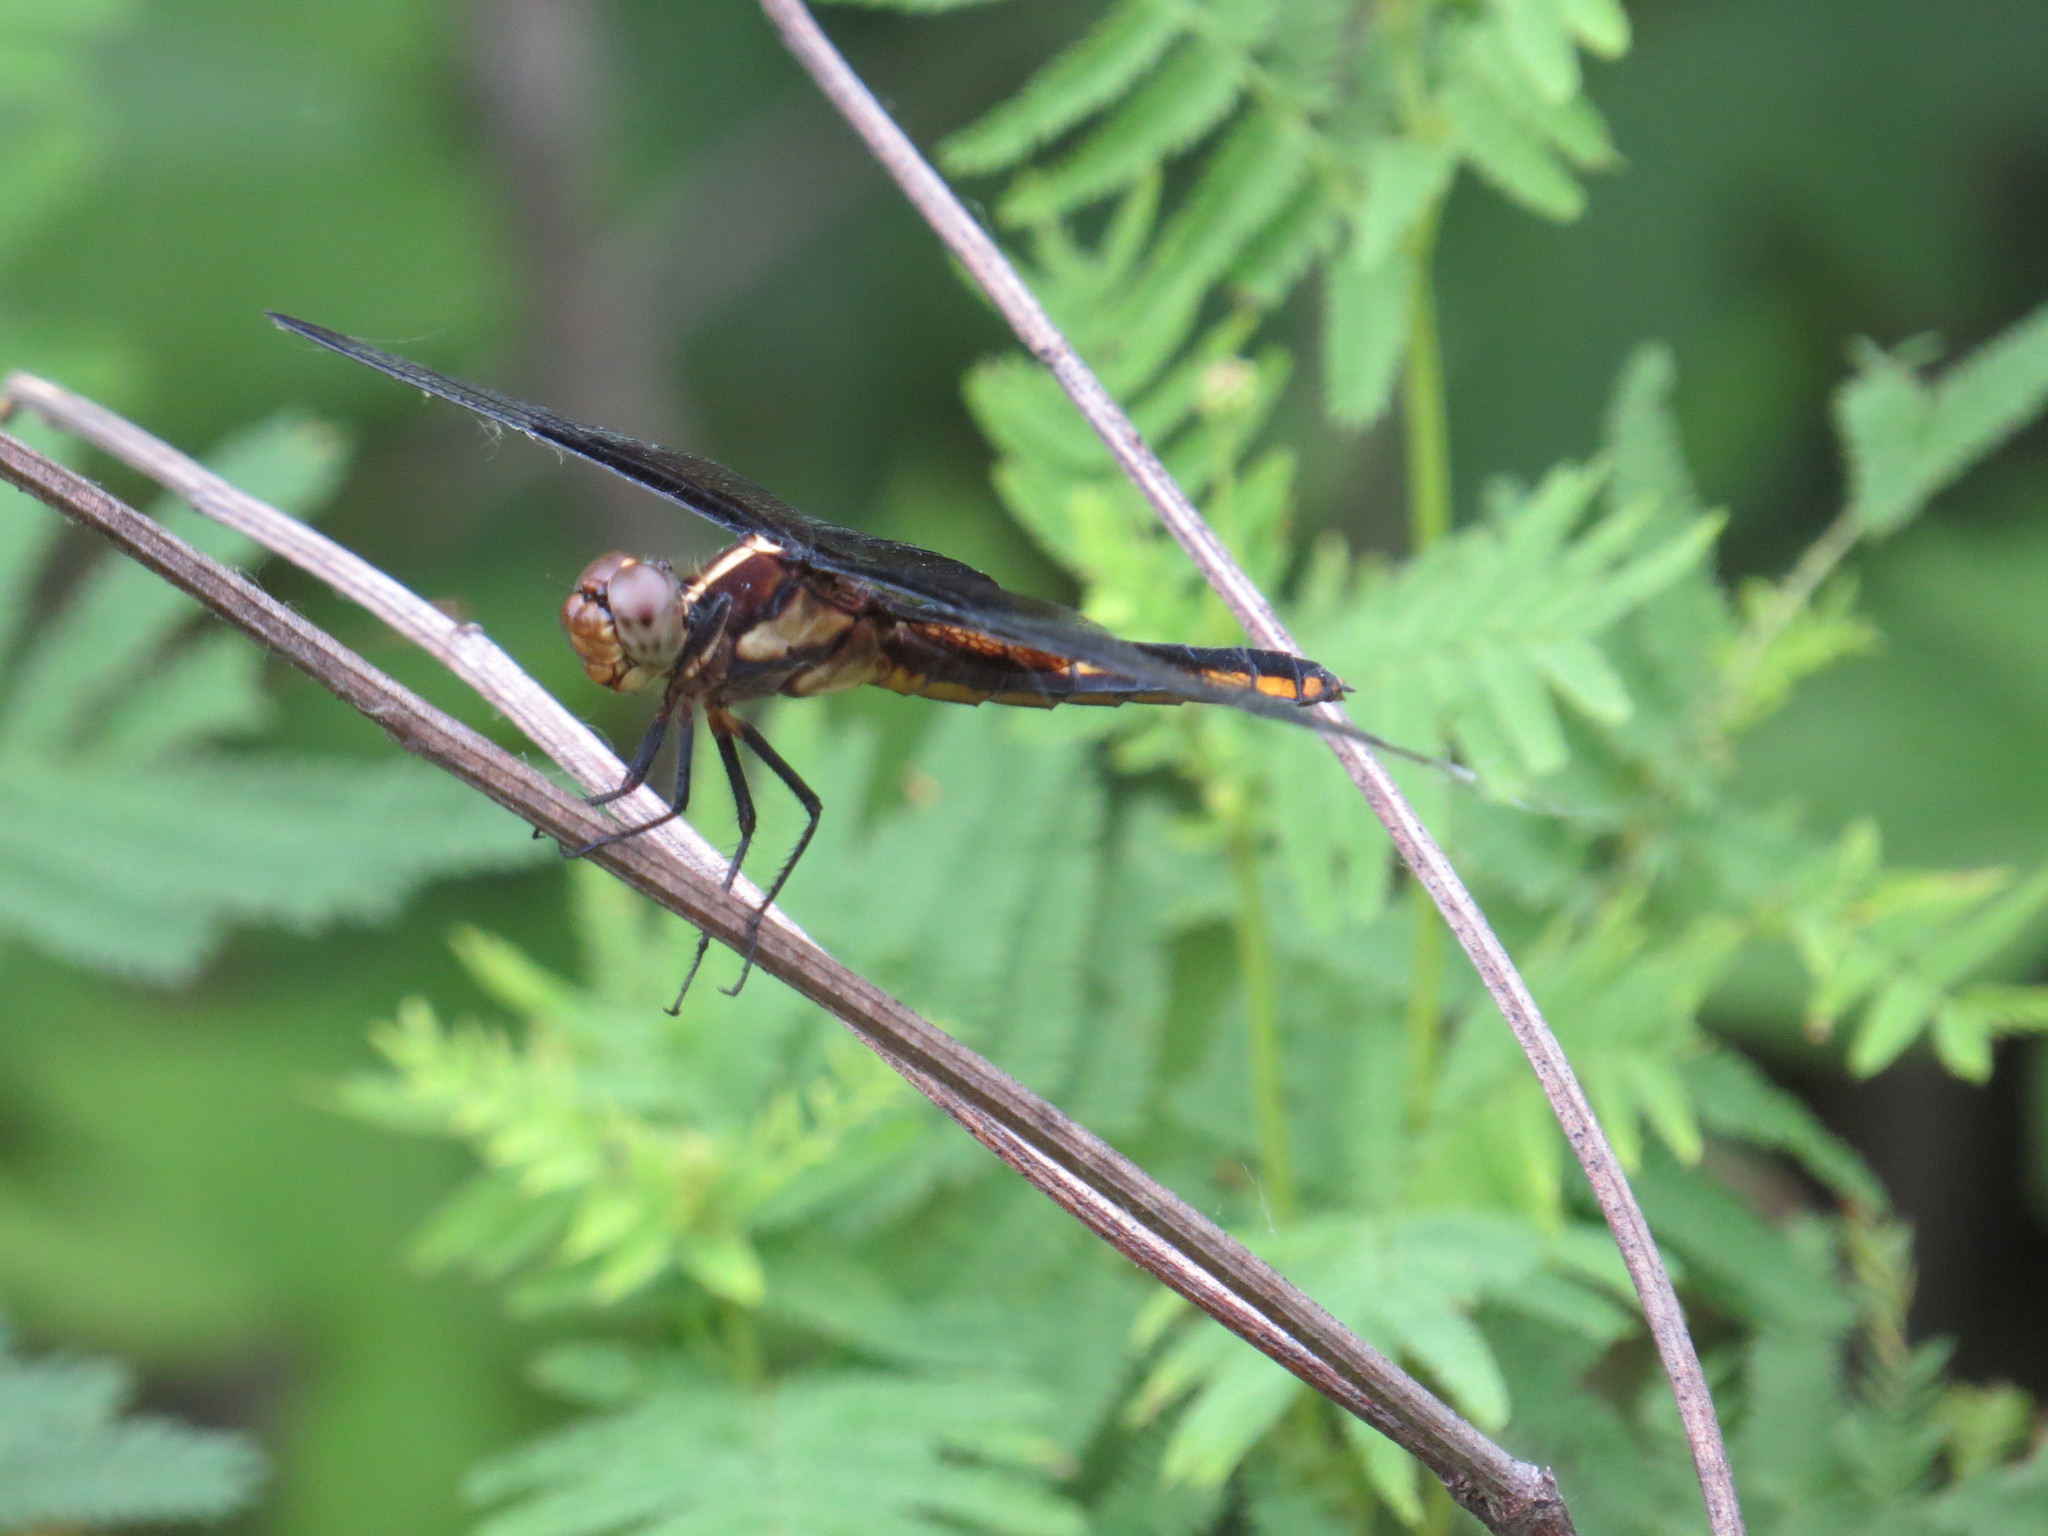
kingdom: Animalia
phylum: Arthropoda
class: Insecta
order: Odonata
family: Libellulidae
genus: Libellula
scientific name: Libellula luctuosa
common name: Widow skimmer
